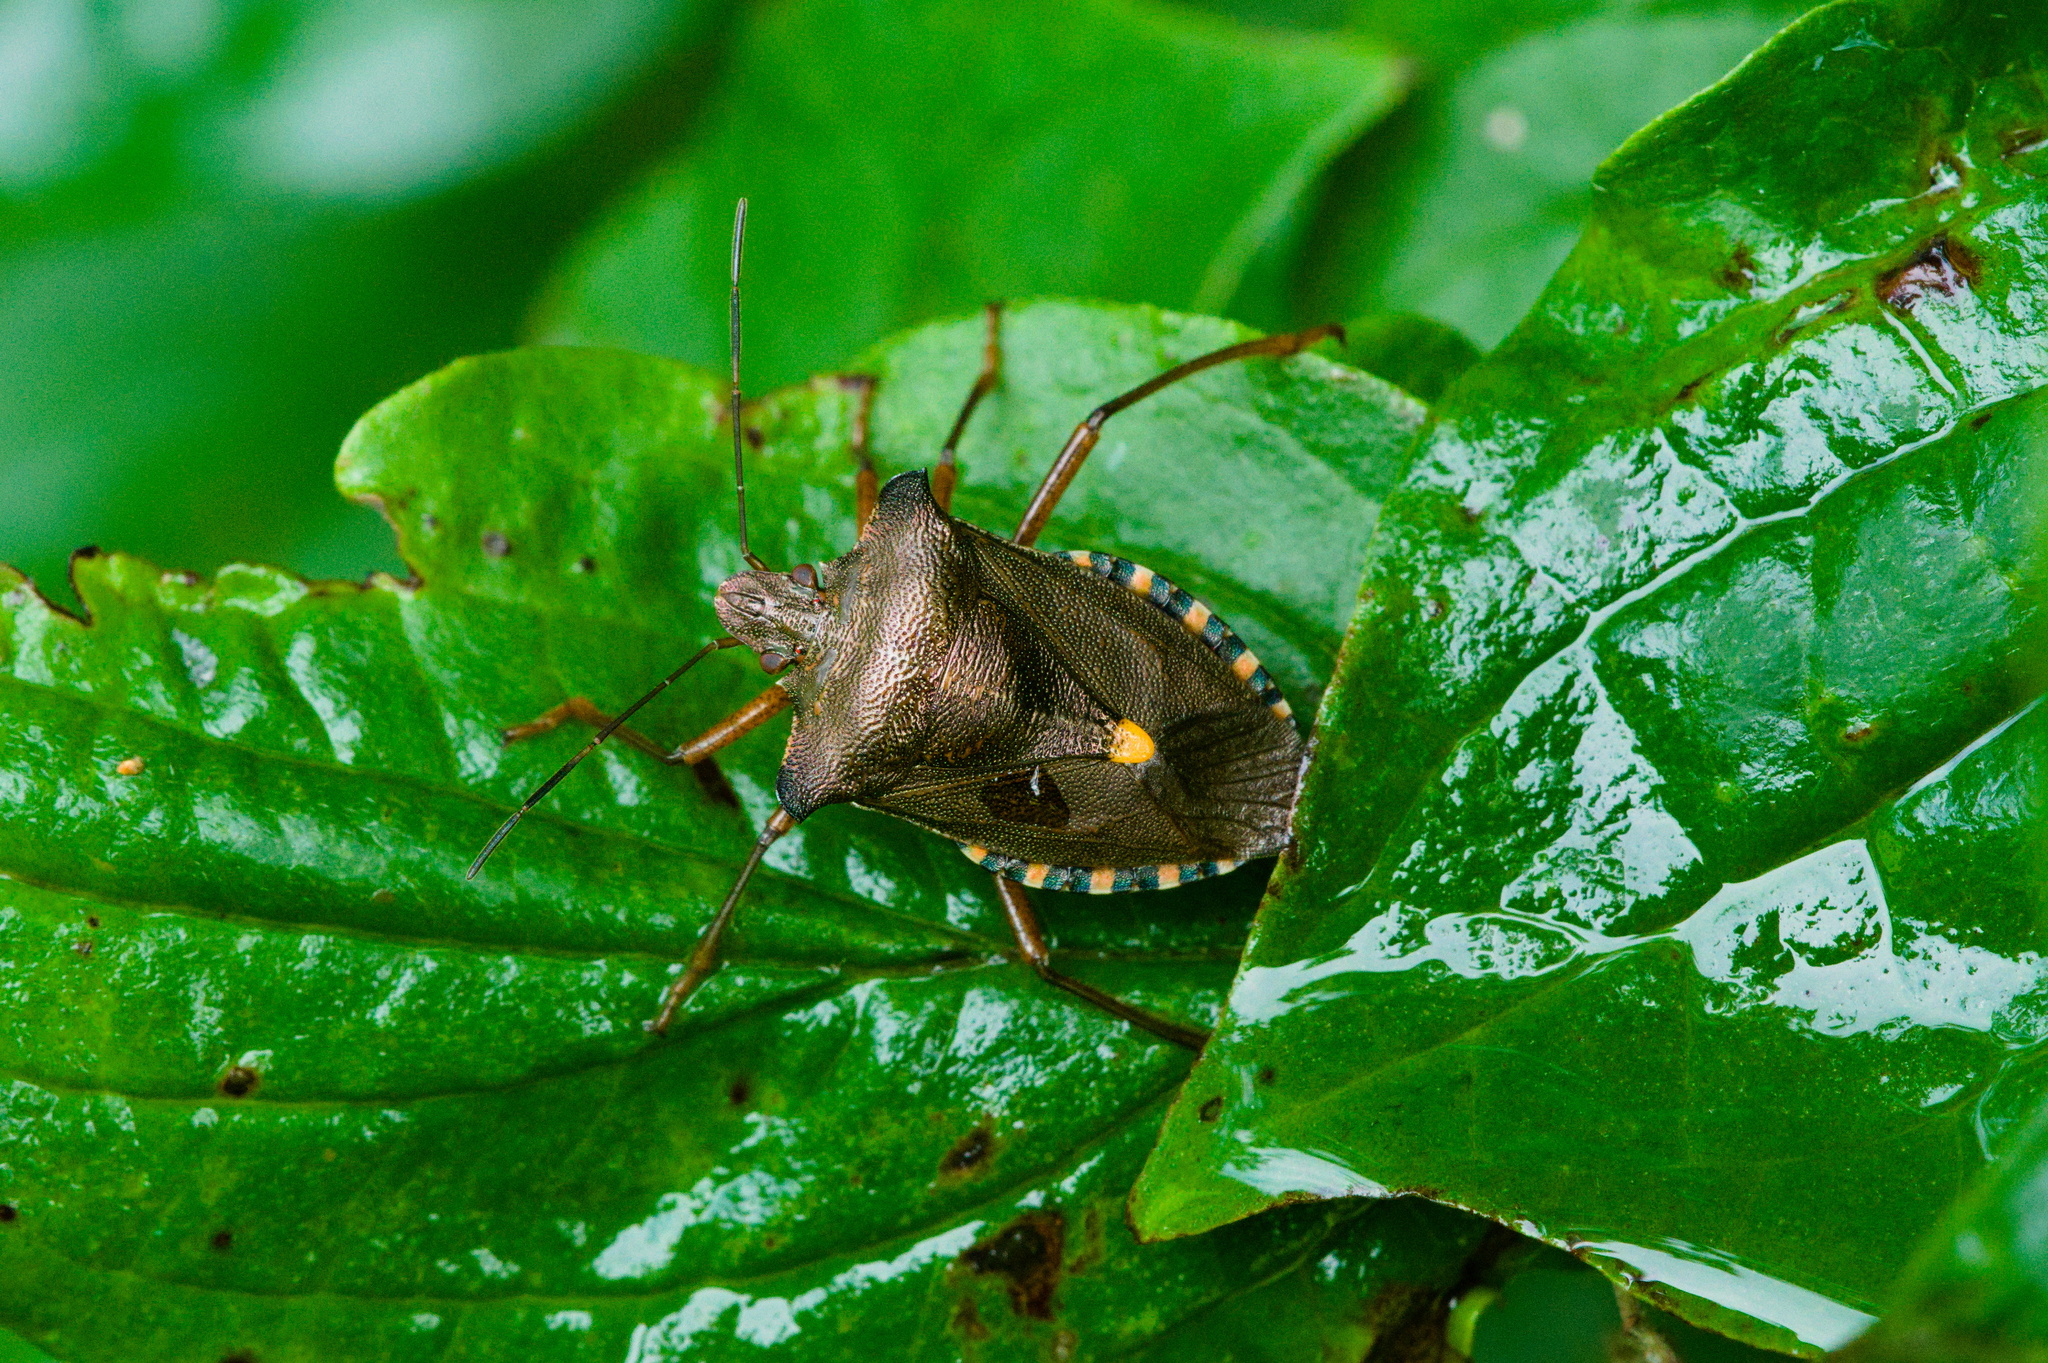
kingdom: Animalia
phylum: Arthropoda
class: Insecta
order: Hemiptera
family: Pentatomidae
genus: Pentatoma
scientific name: Pentatoma rufipes
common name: Forest bug
